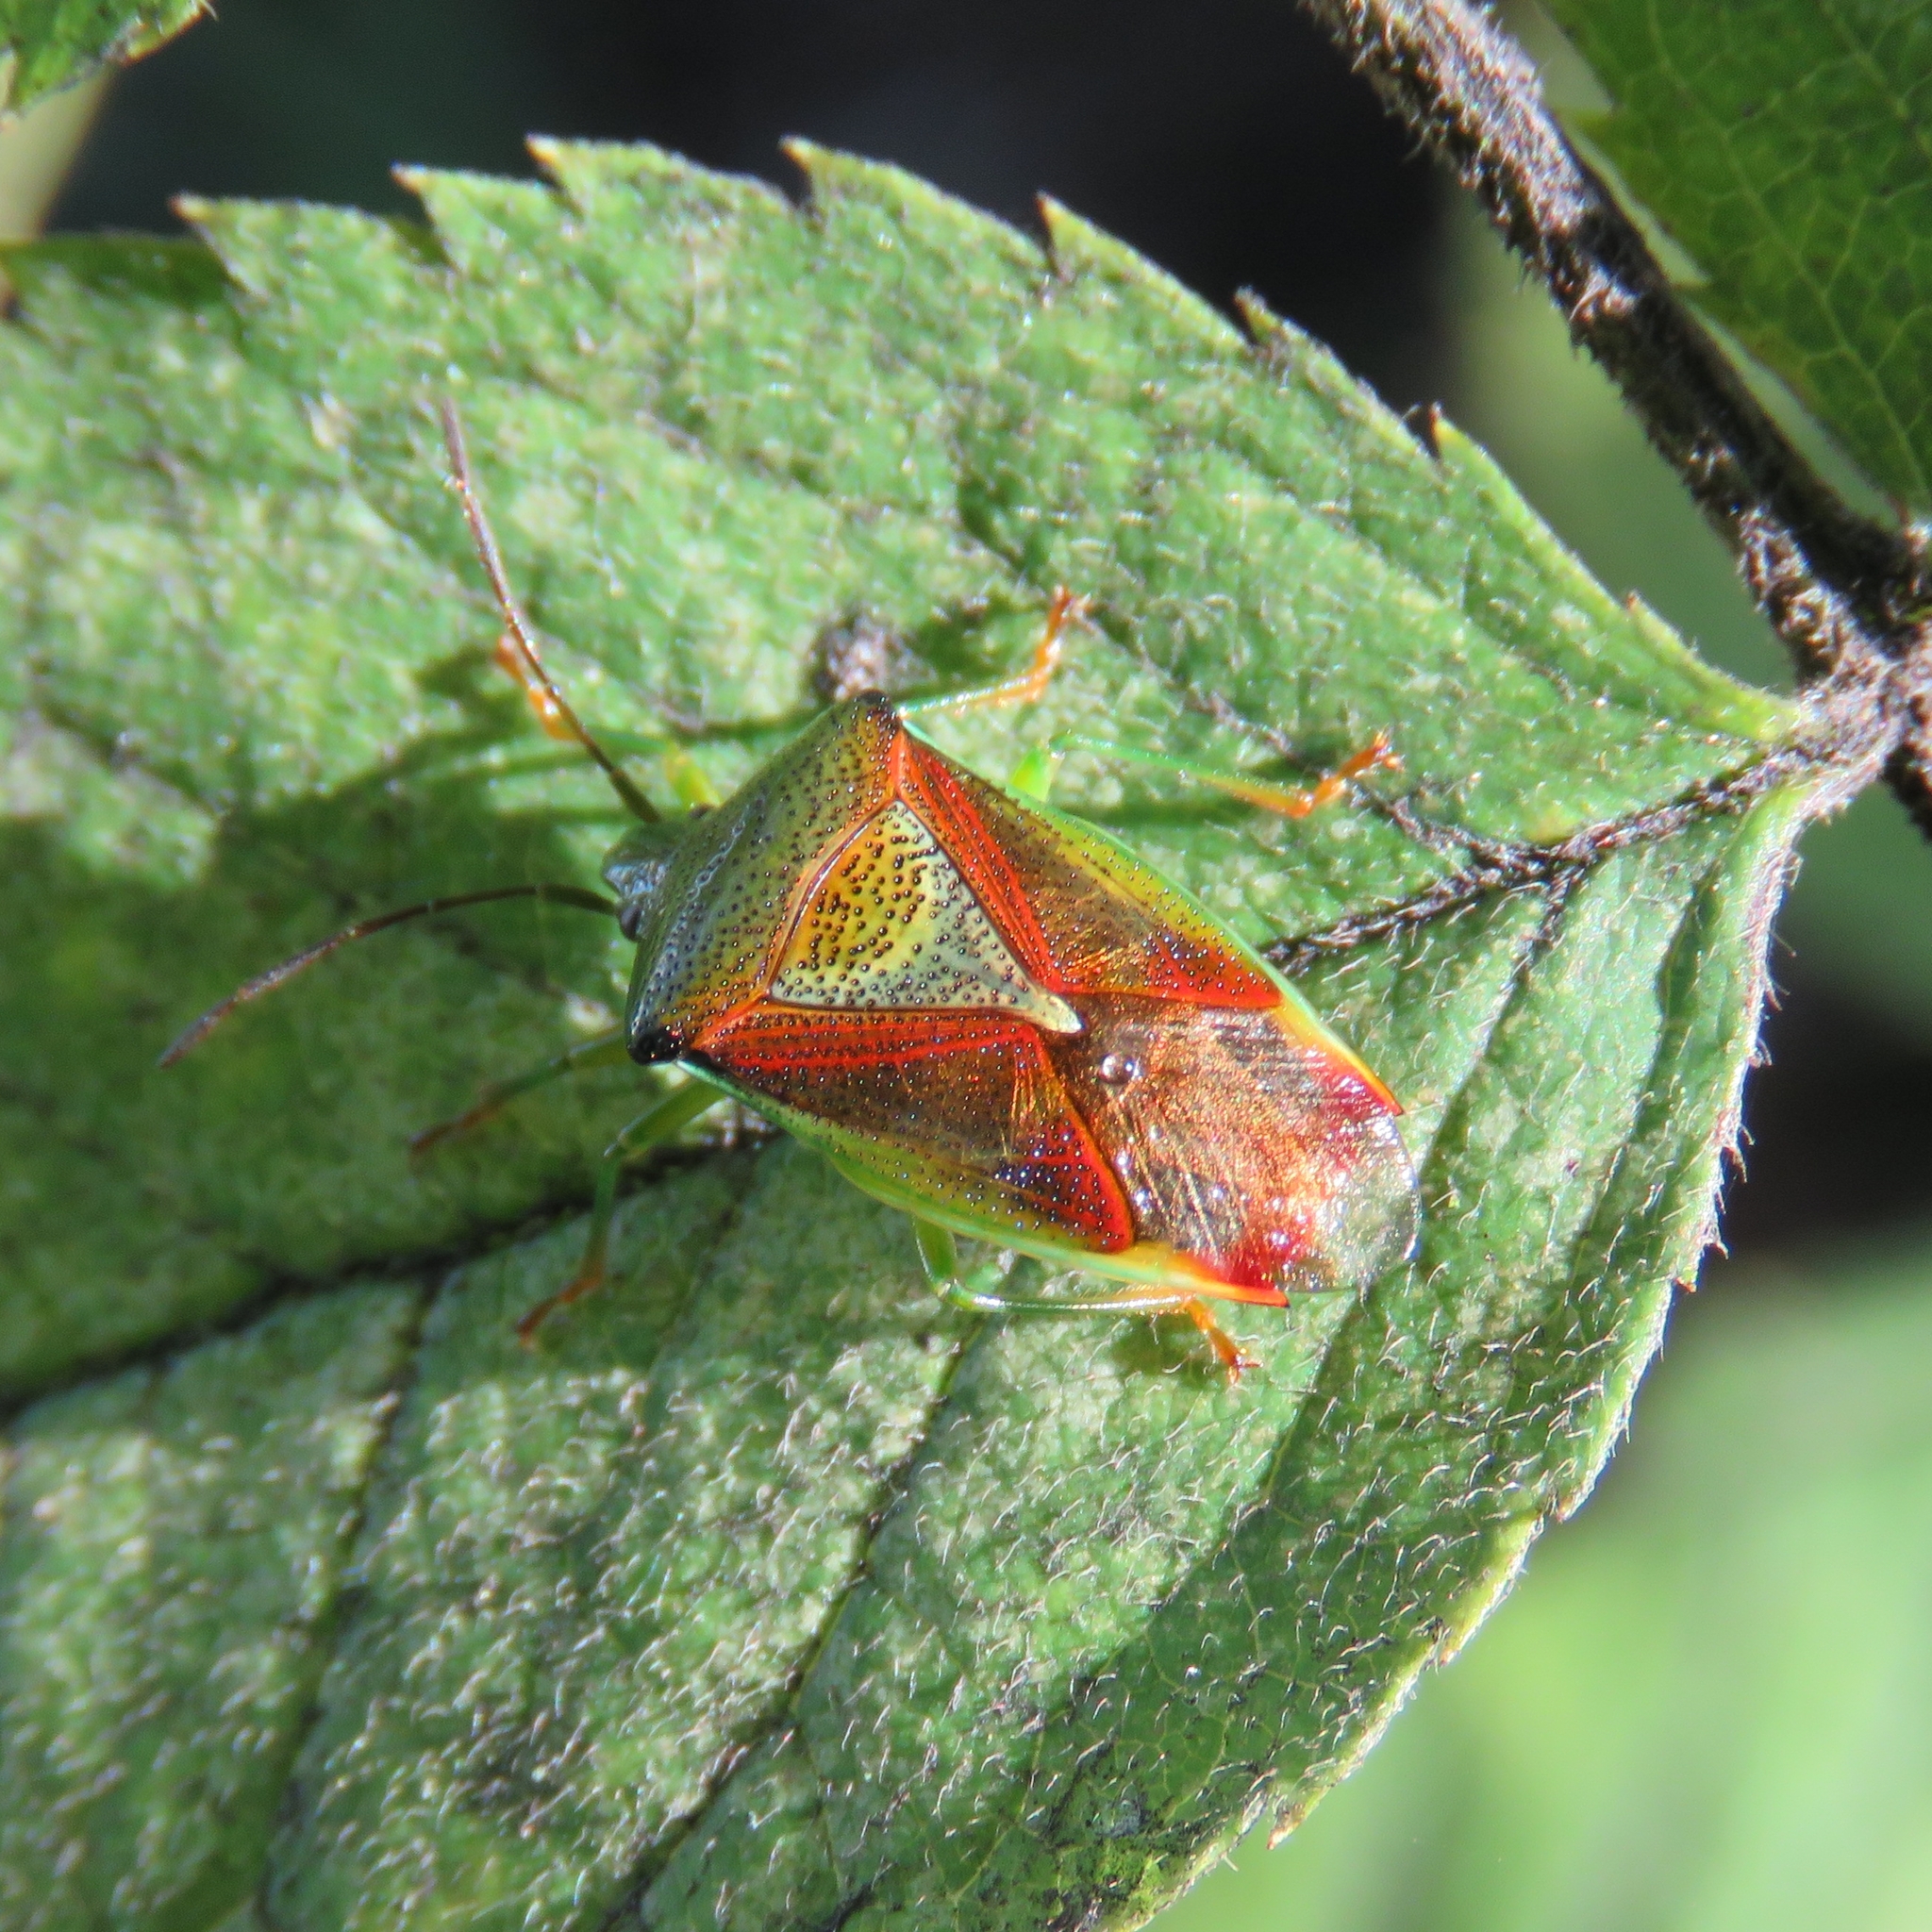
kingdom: Animalia
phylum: Arthropoda
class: Insecta
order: Hemiptera
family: Acanthosomatidae
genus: Elasmostethus
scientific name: Elasmostethus interstinctus
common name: Birch shieldbug
